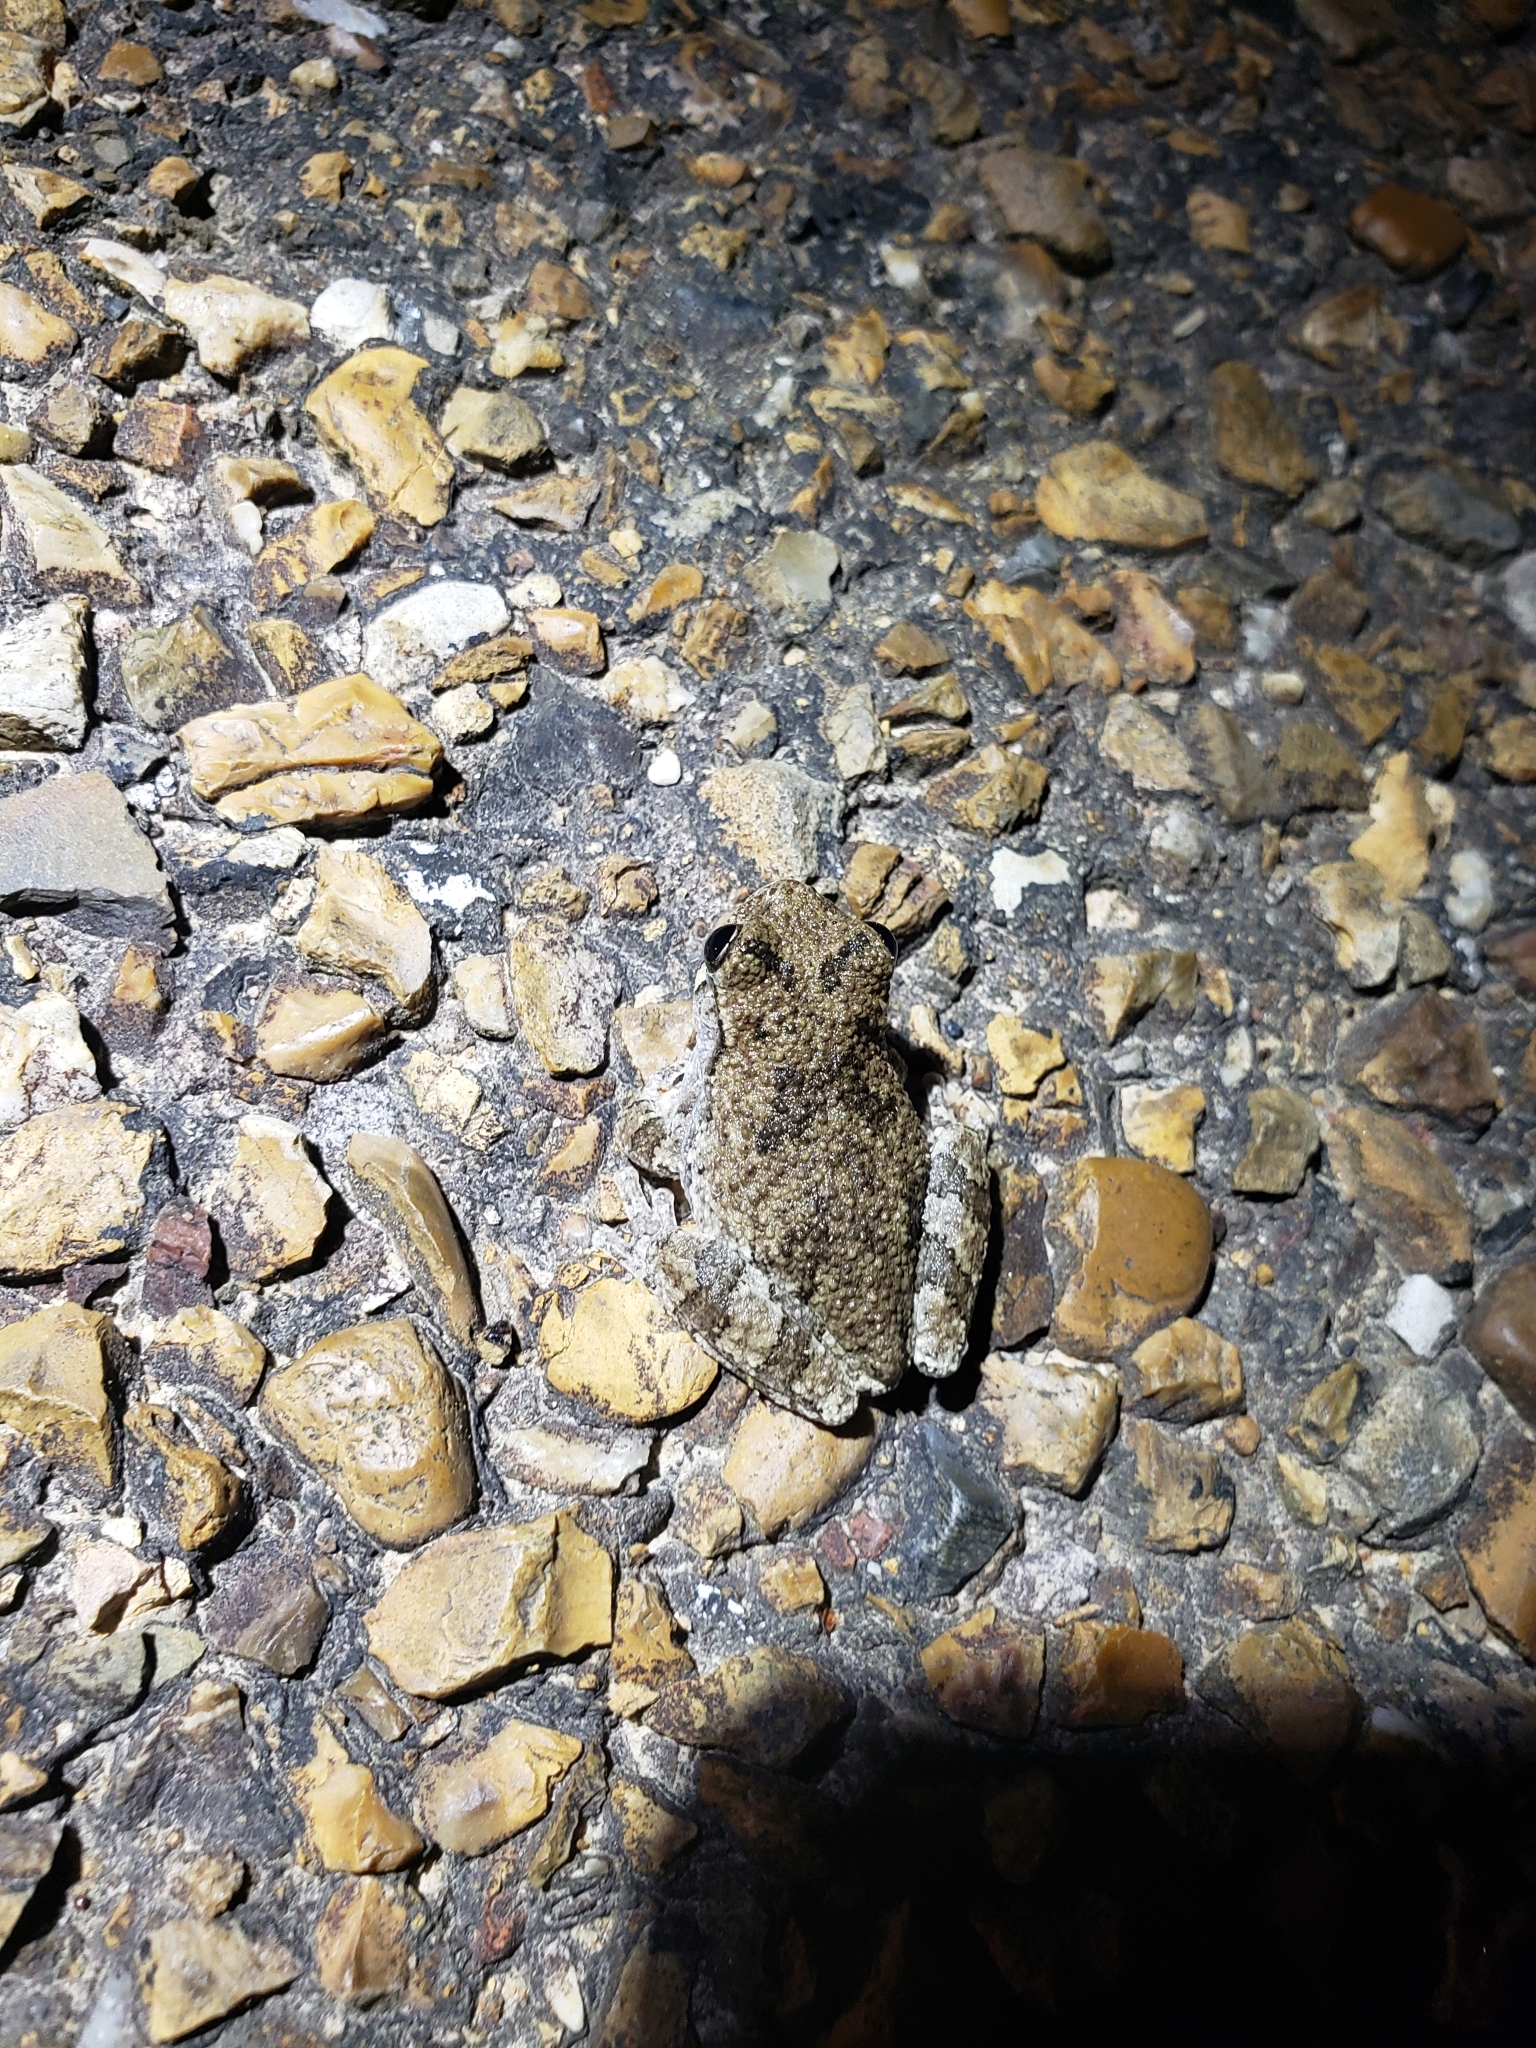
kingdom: Animalia
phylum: Chordata
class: Amphibia
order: Anura
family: Hylidae
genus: Dryophytes
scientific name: Dryophytes chrysoscelis
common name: Cope's gray treefrog
